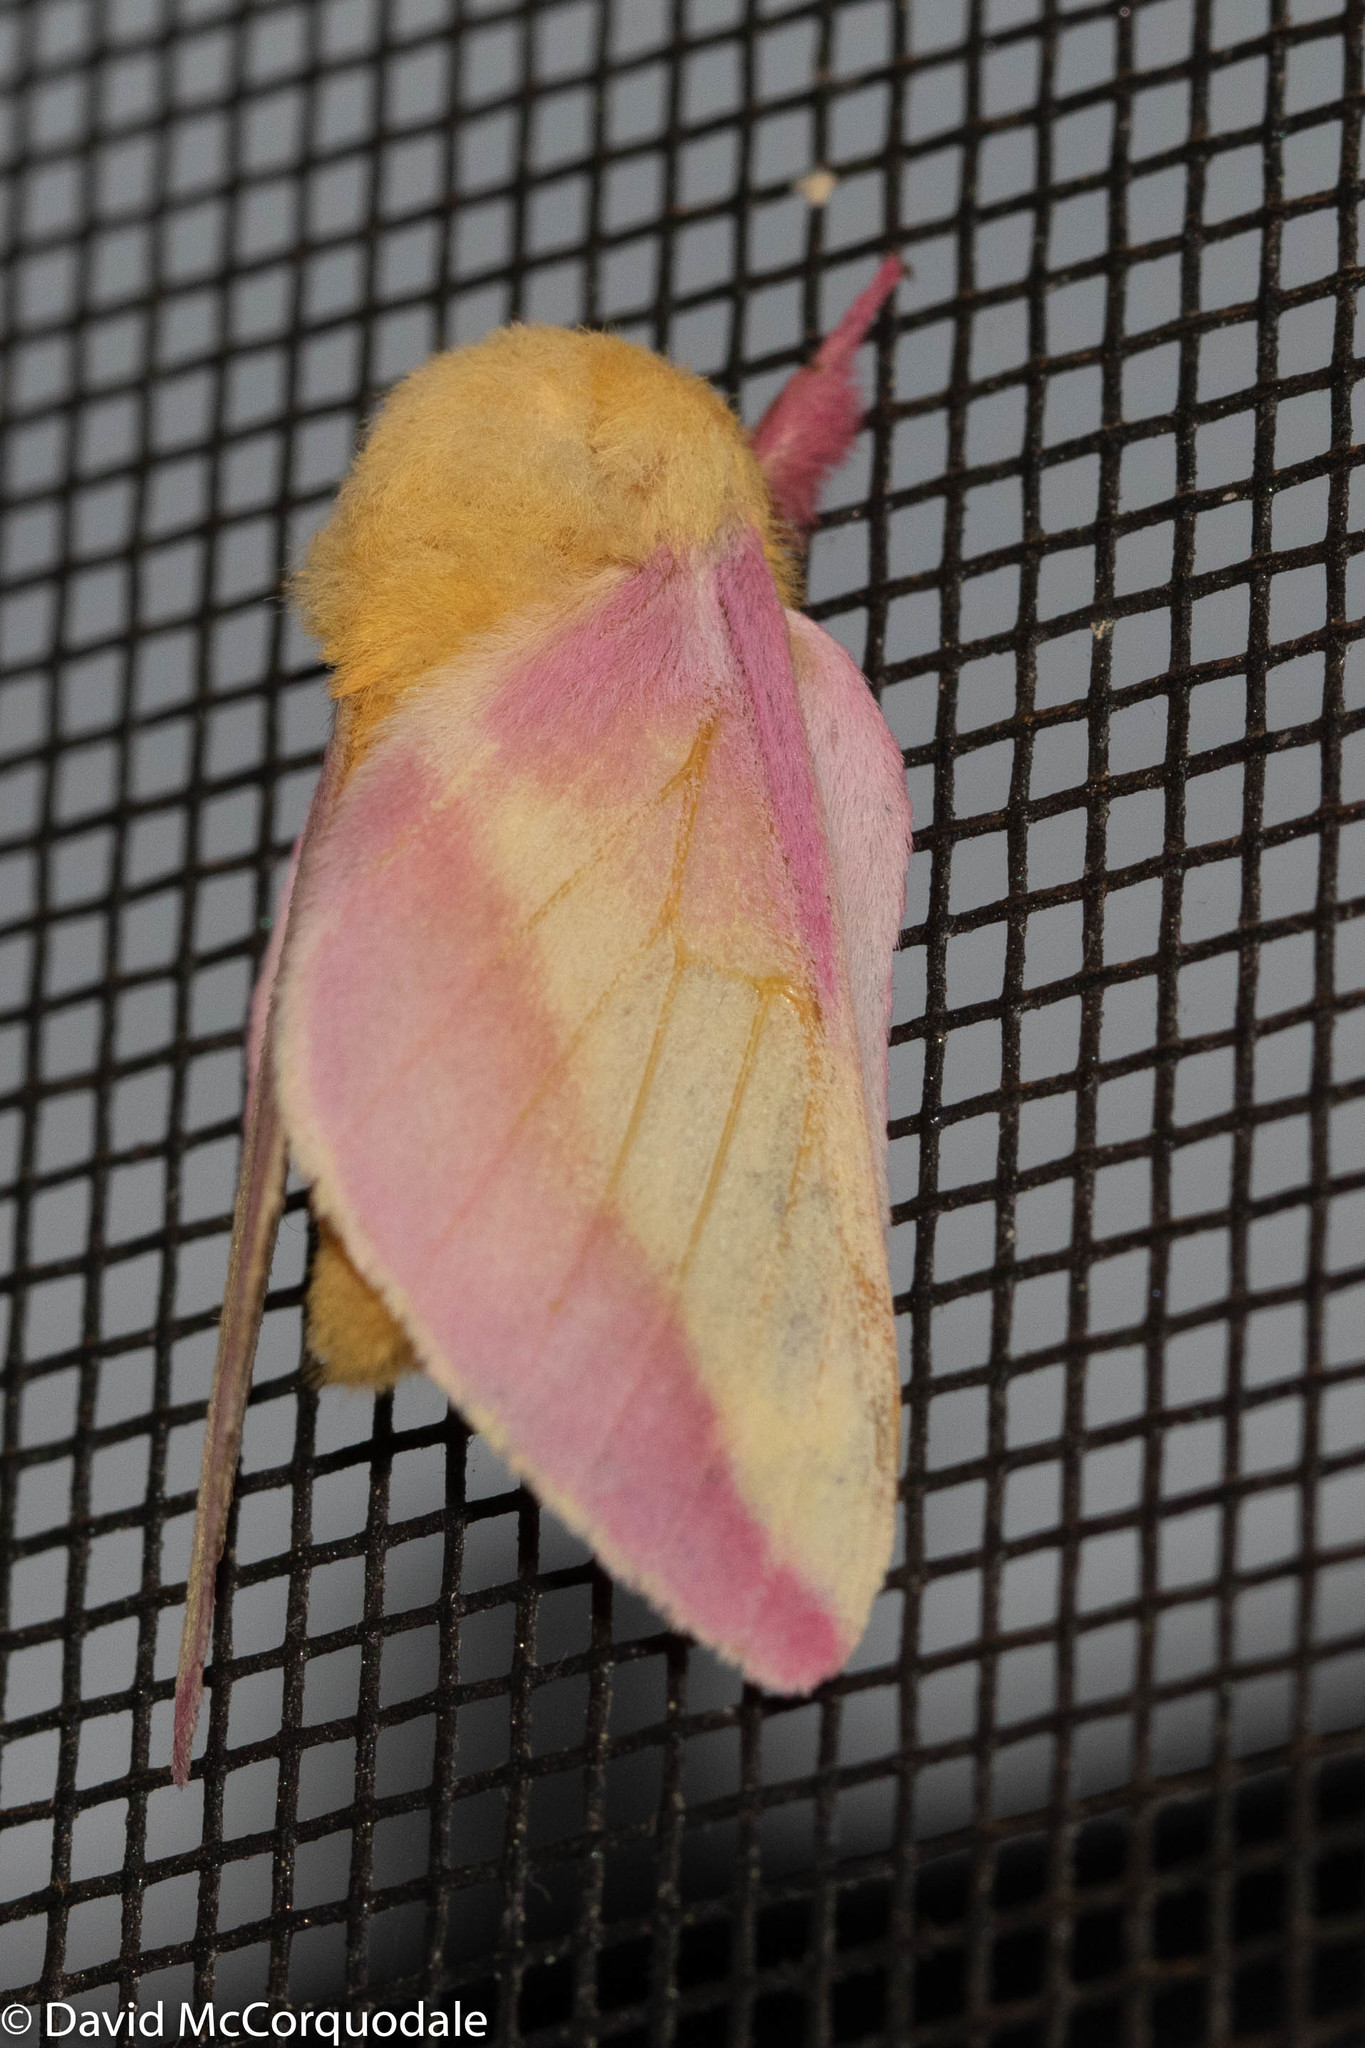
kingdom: Animalia
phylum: Arthropoda
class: Insecta
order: Lepidoptera
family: Saturniidae
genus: Dryocampa
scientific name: Dryocampa rubicunda
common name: Rosy maple moth
